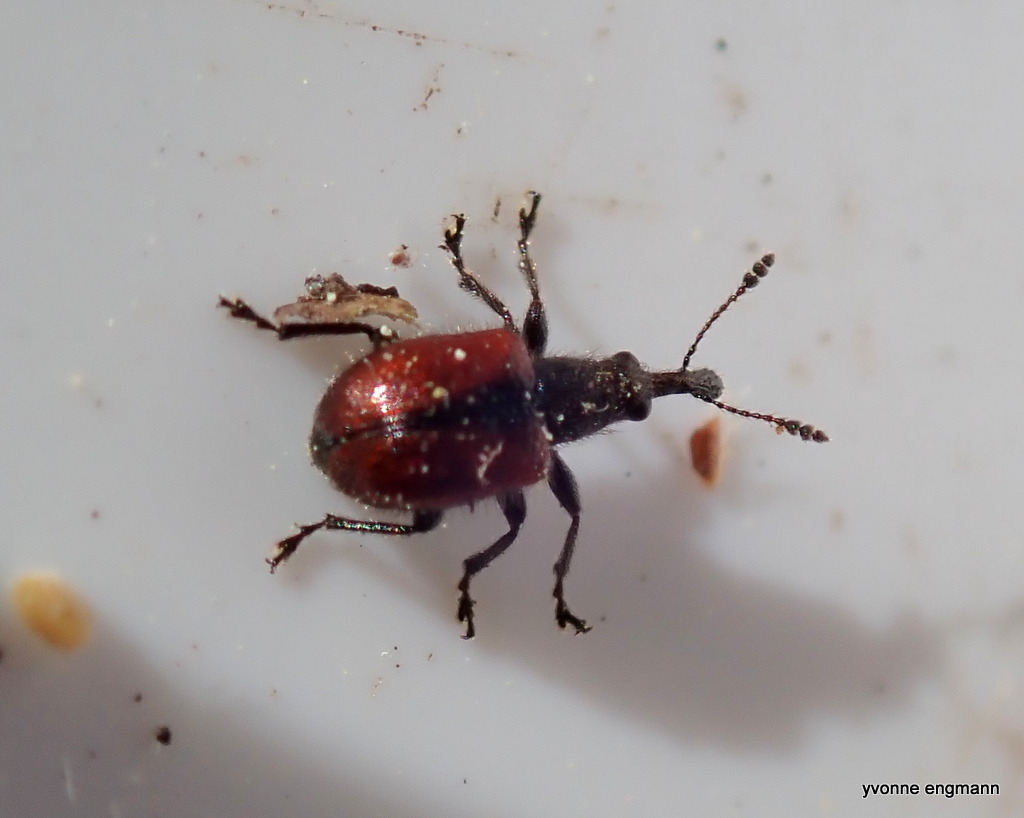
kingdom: Animalia
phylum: Arthropoda
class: Insecta
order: Coleoptera
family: Rhynchitidae
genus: Tatianaerhynchites
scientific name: Tatianaerhynchites aequatus
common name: Apple fruit rhynchites
